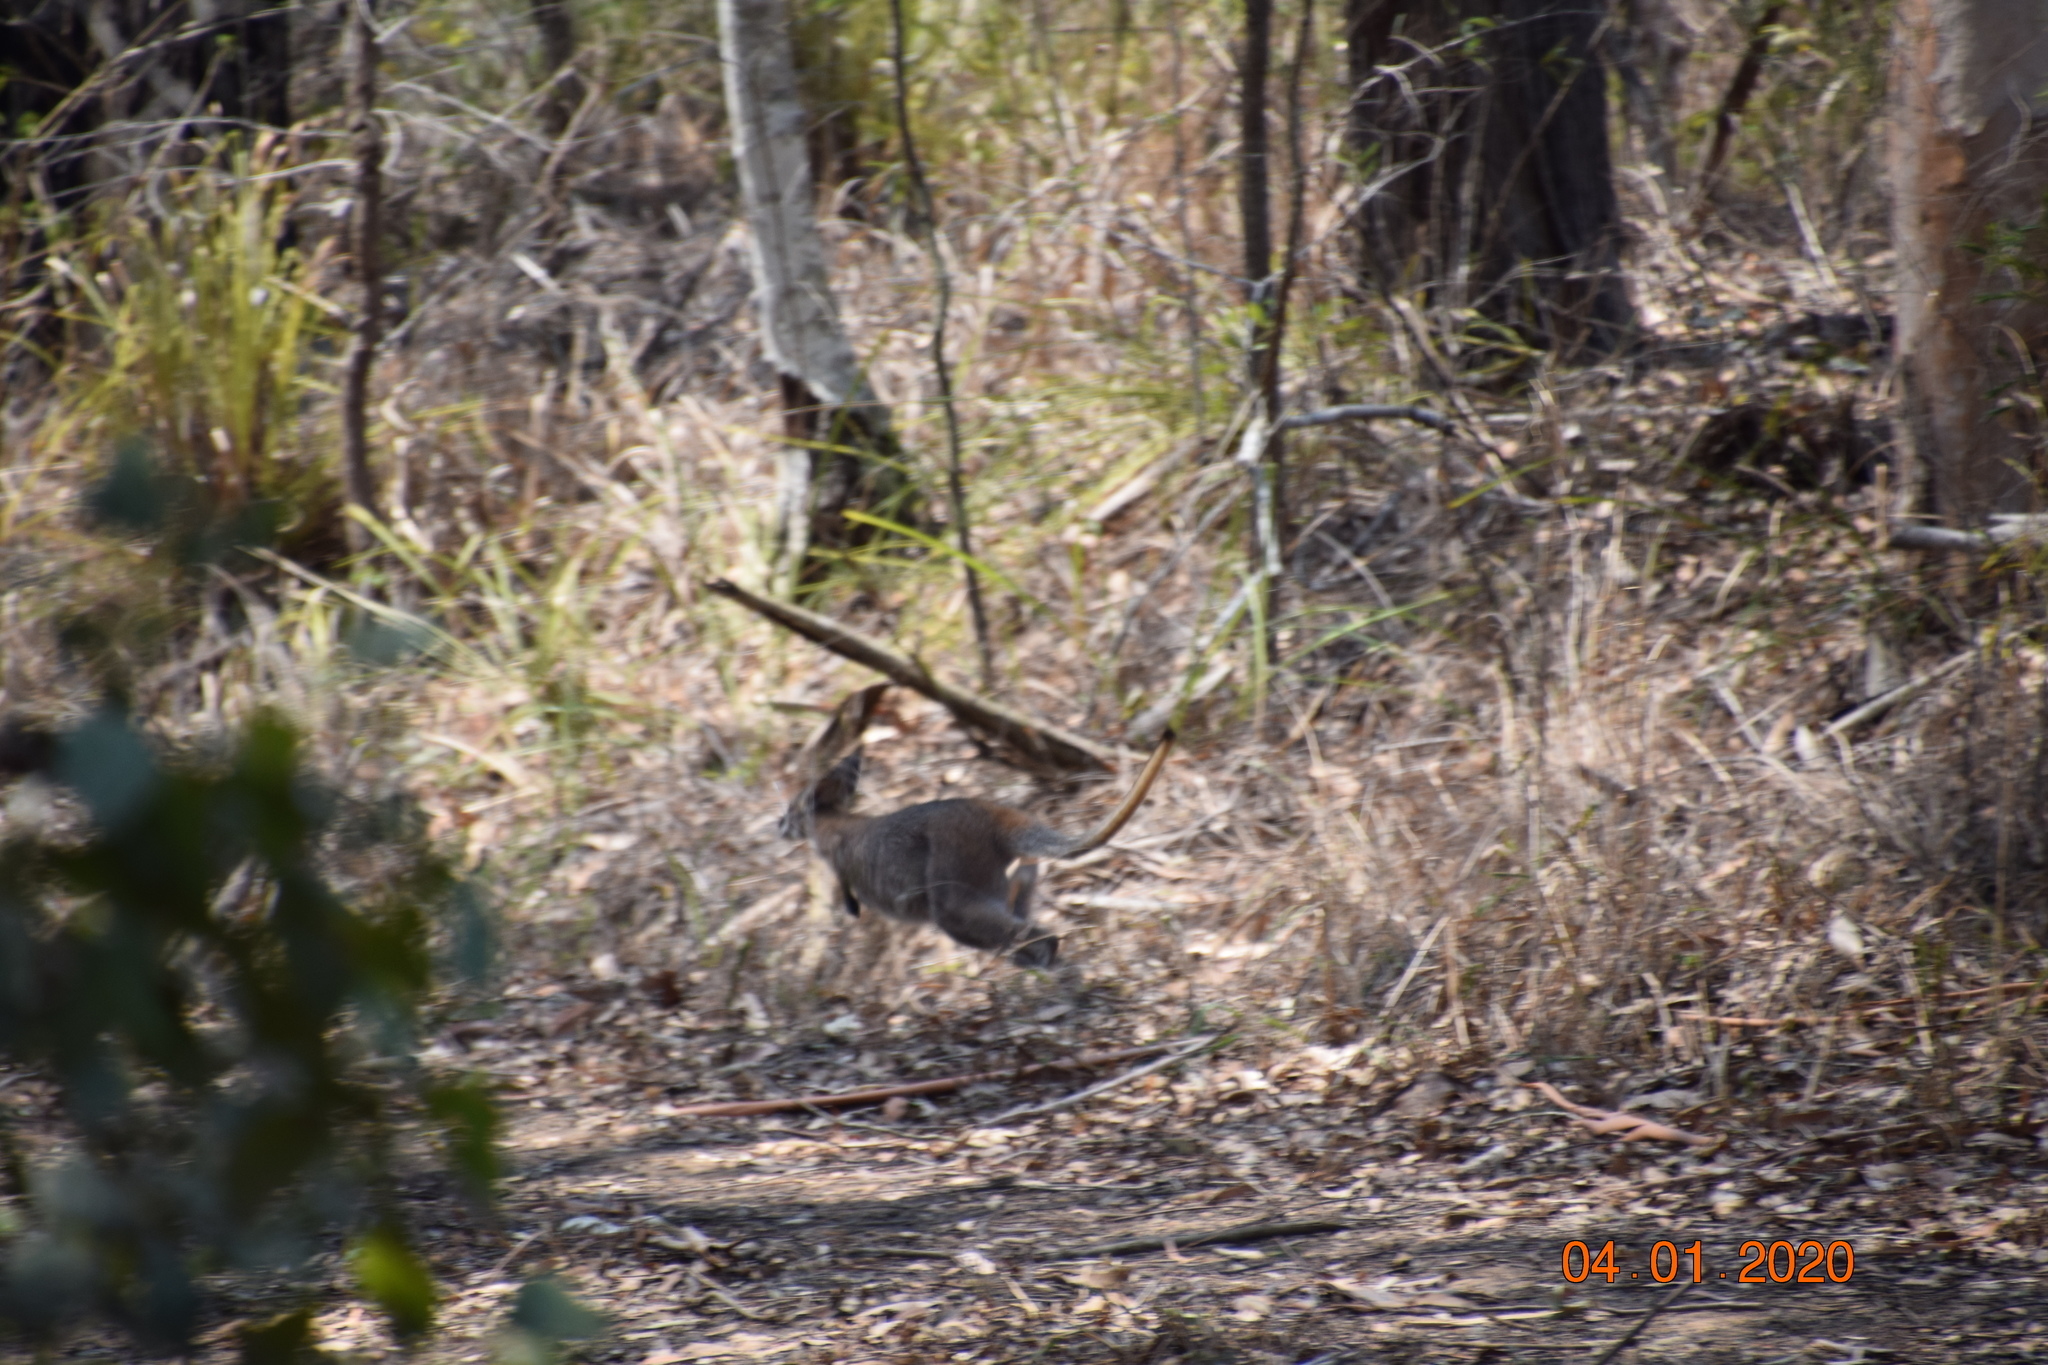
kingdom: Animalia
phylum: Chordata
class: Mammalia
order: Diprotodontia
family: Macropodidae
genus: Notamacropus
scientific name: Notamacropus rufogriseus
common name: Red-necked wallaby
